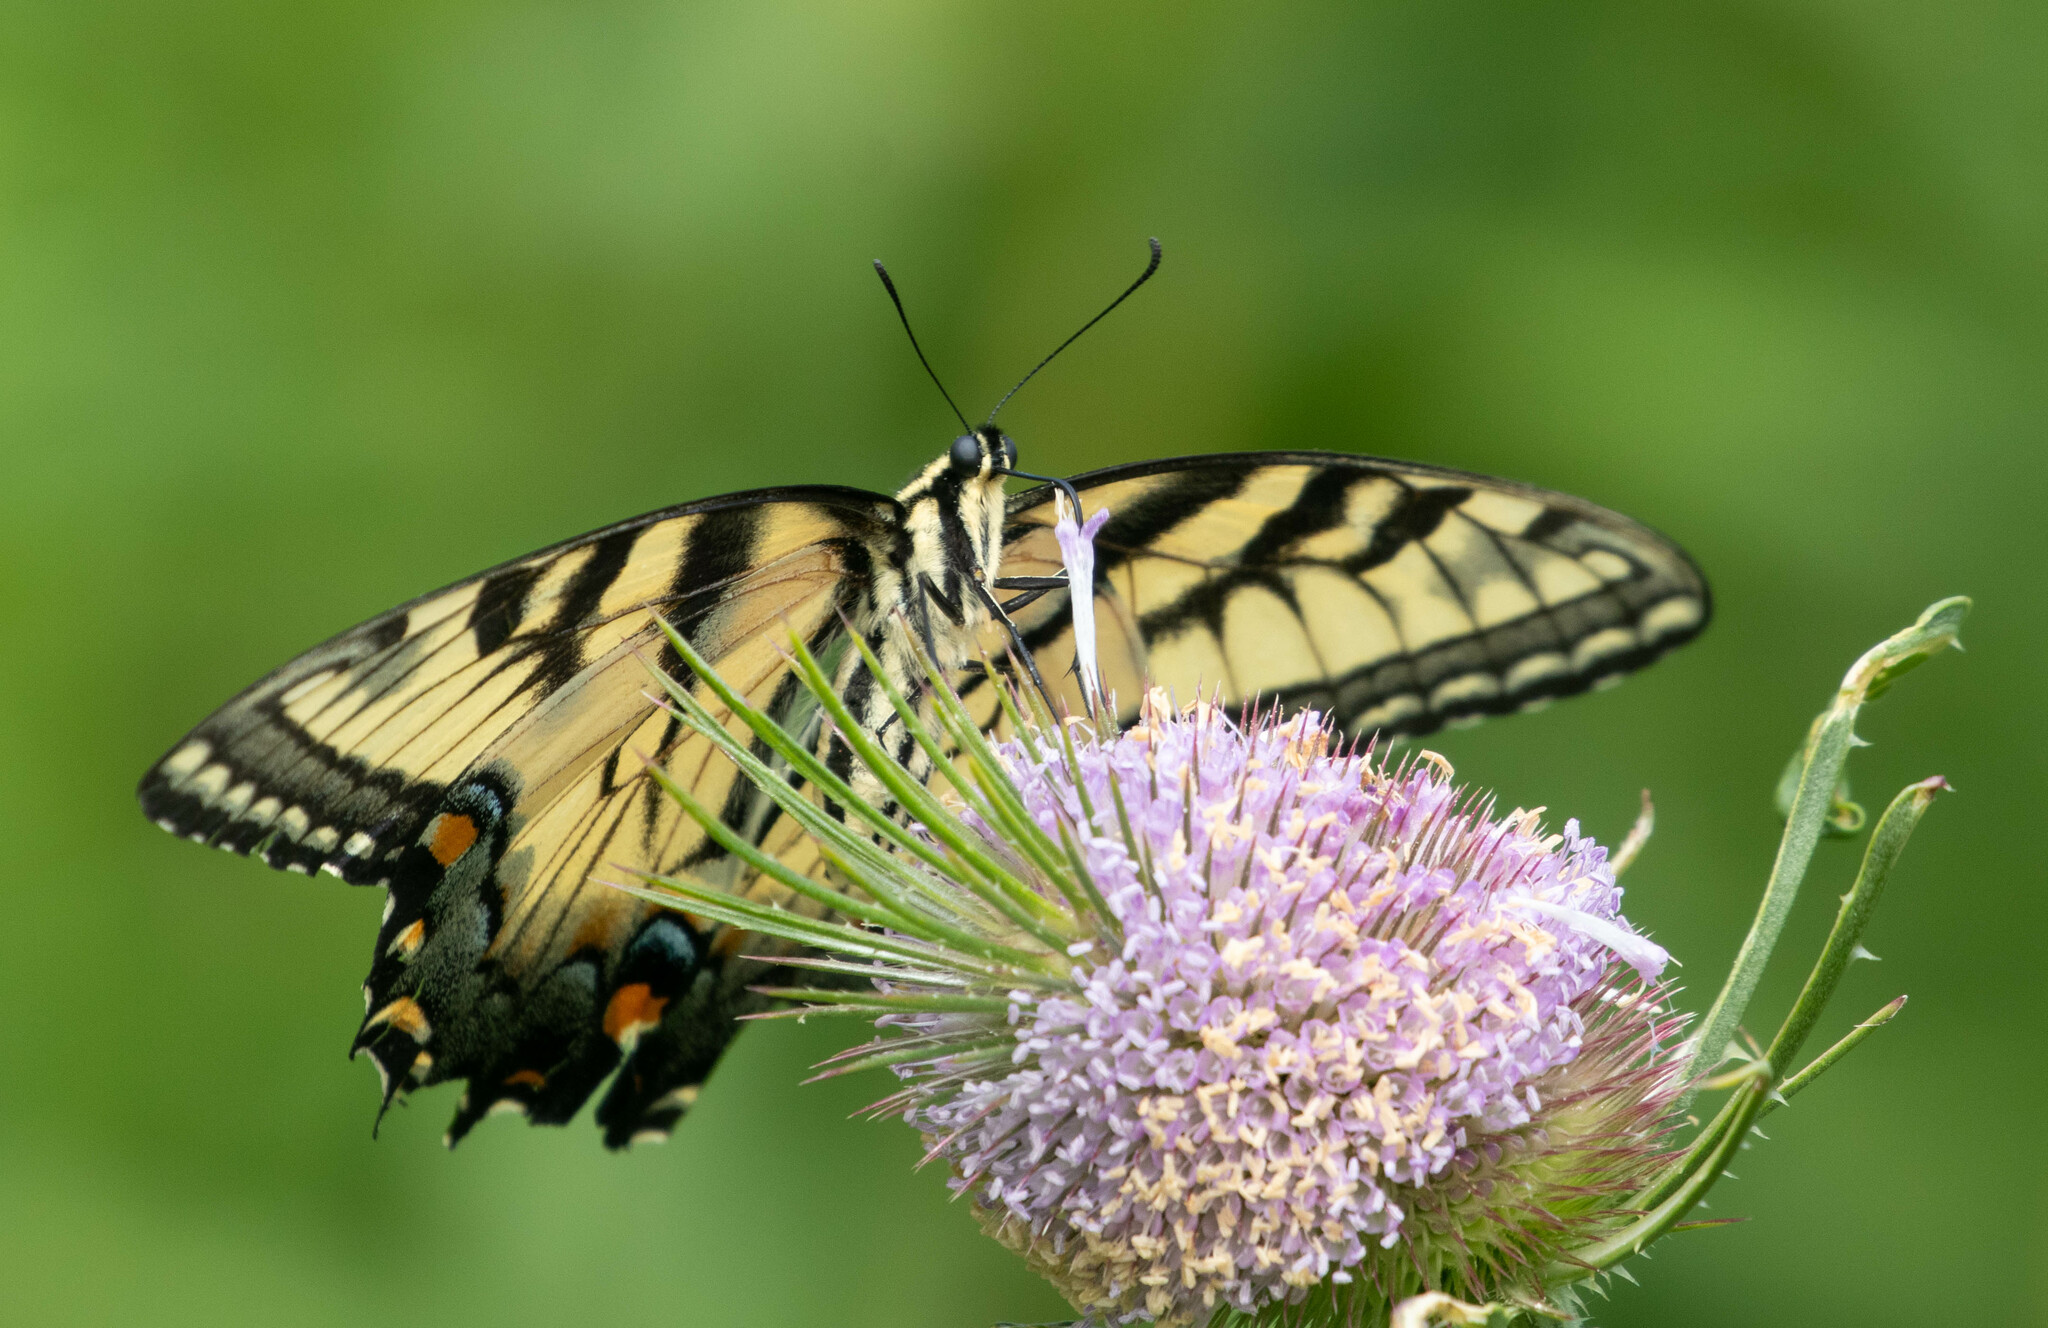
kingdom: Animalia
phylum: Arthropoda
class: Insecta
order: Lepidoptera
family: Papilionidae
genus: Papilio
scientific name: Papilio glaucus
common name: Tiger swallowtail
